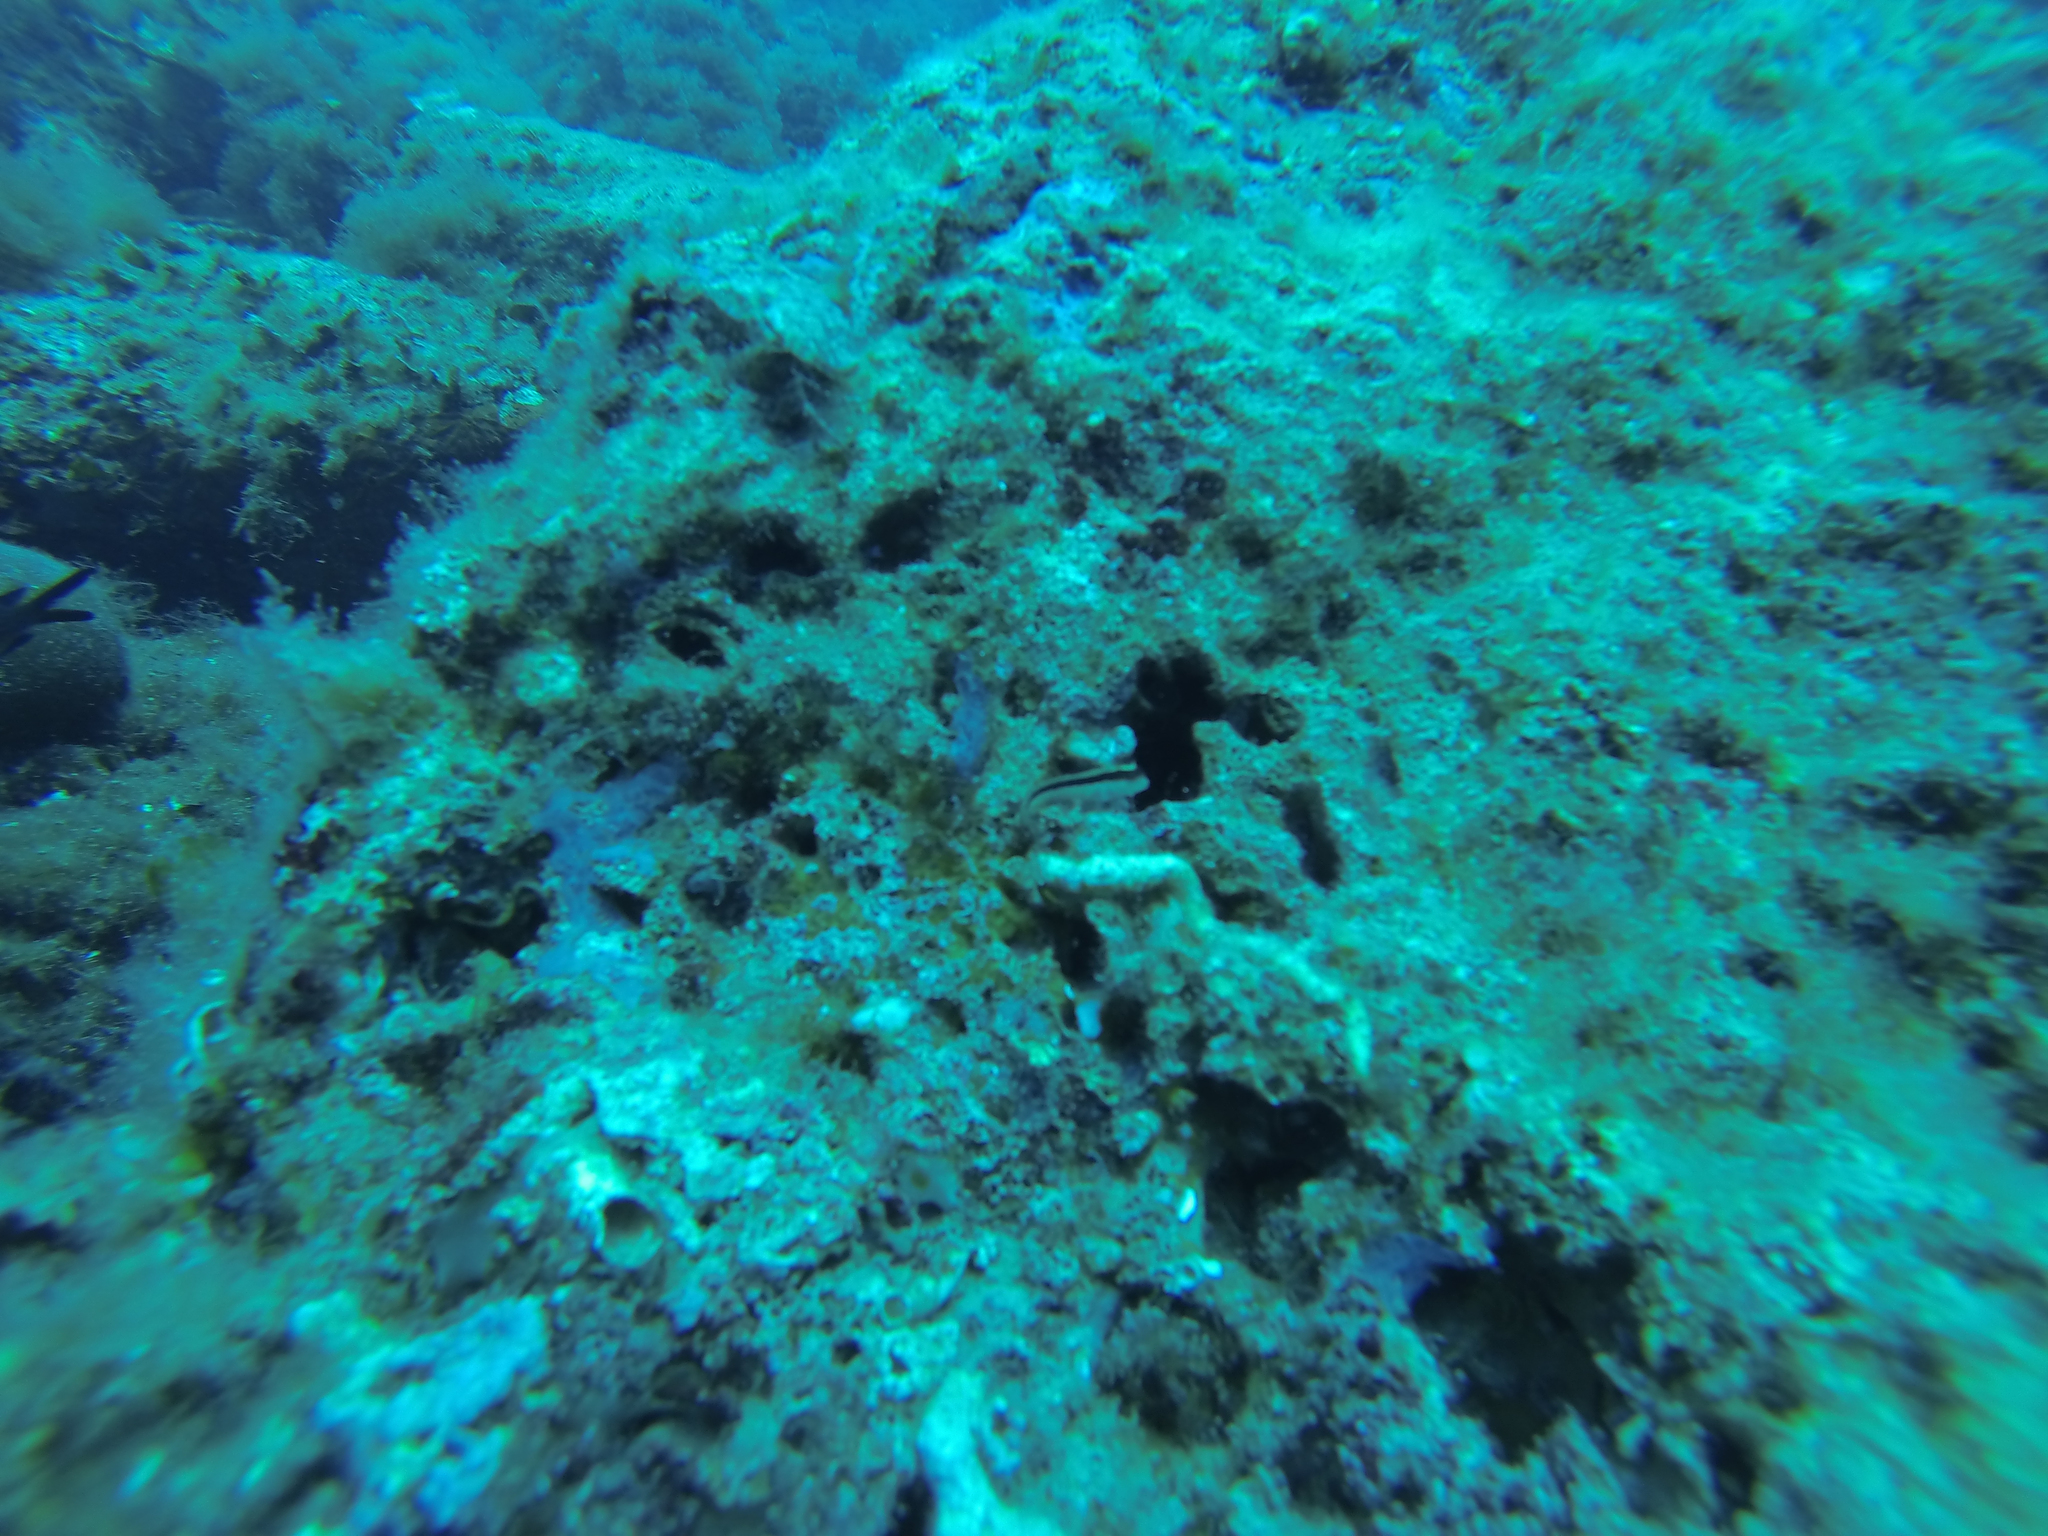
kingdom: Animalia
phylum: Chordata
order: Perciformes
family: Blenniidae
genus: Parablennius
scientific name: Parablennius
